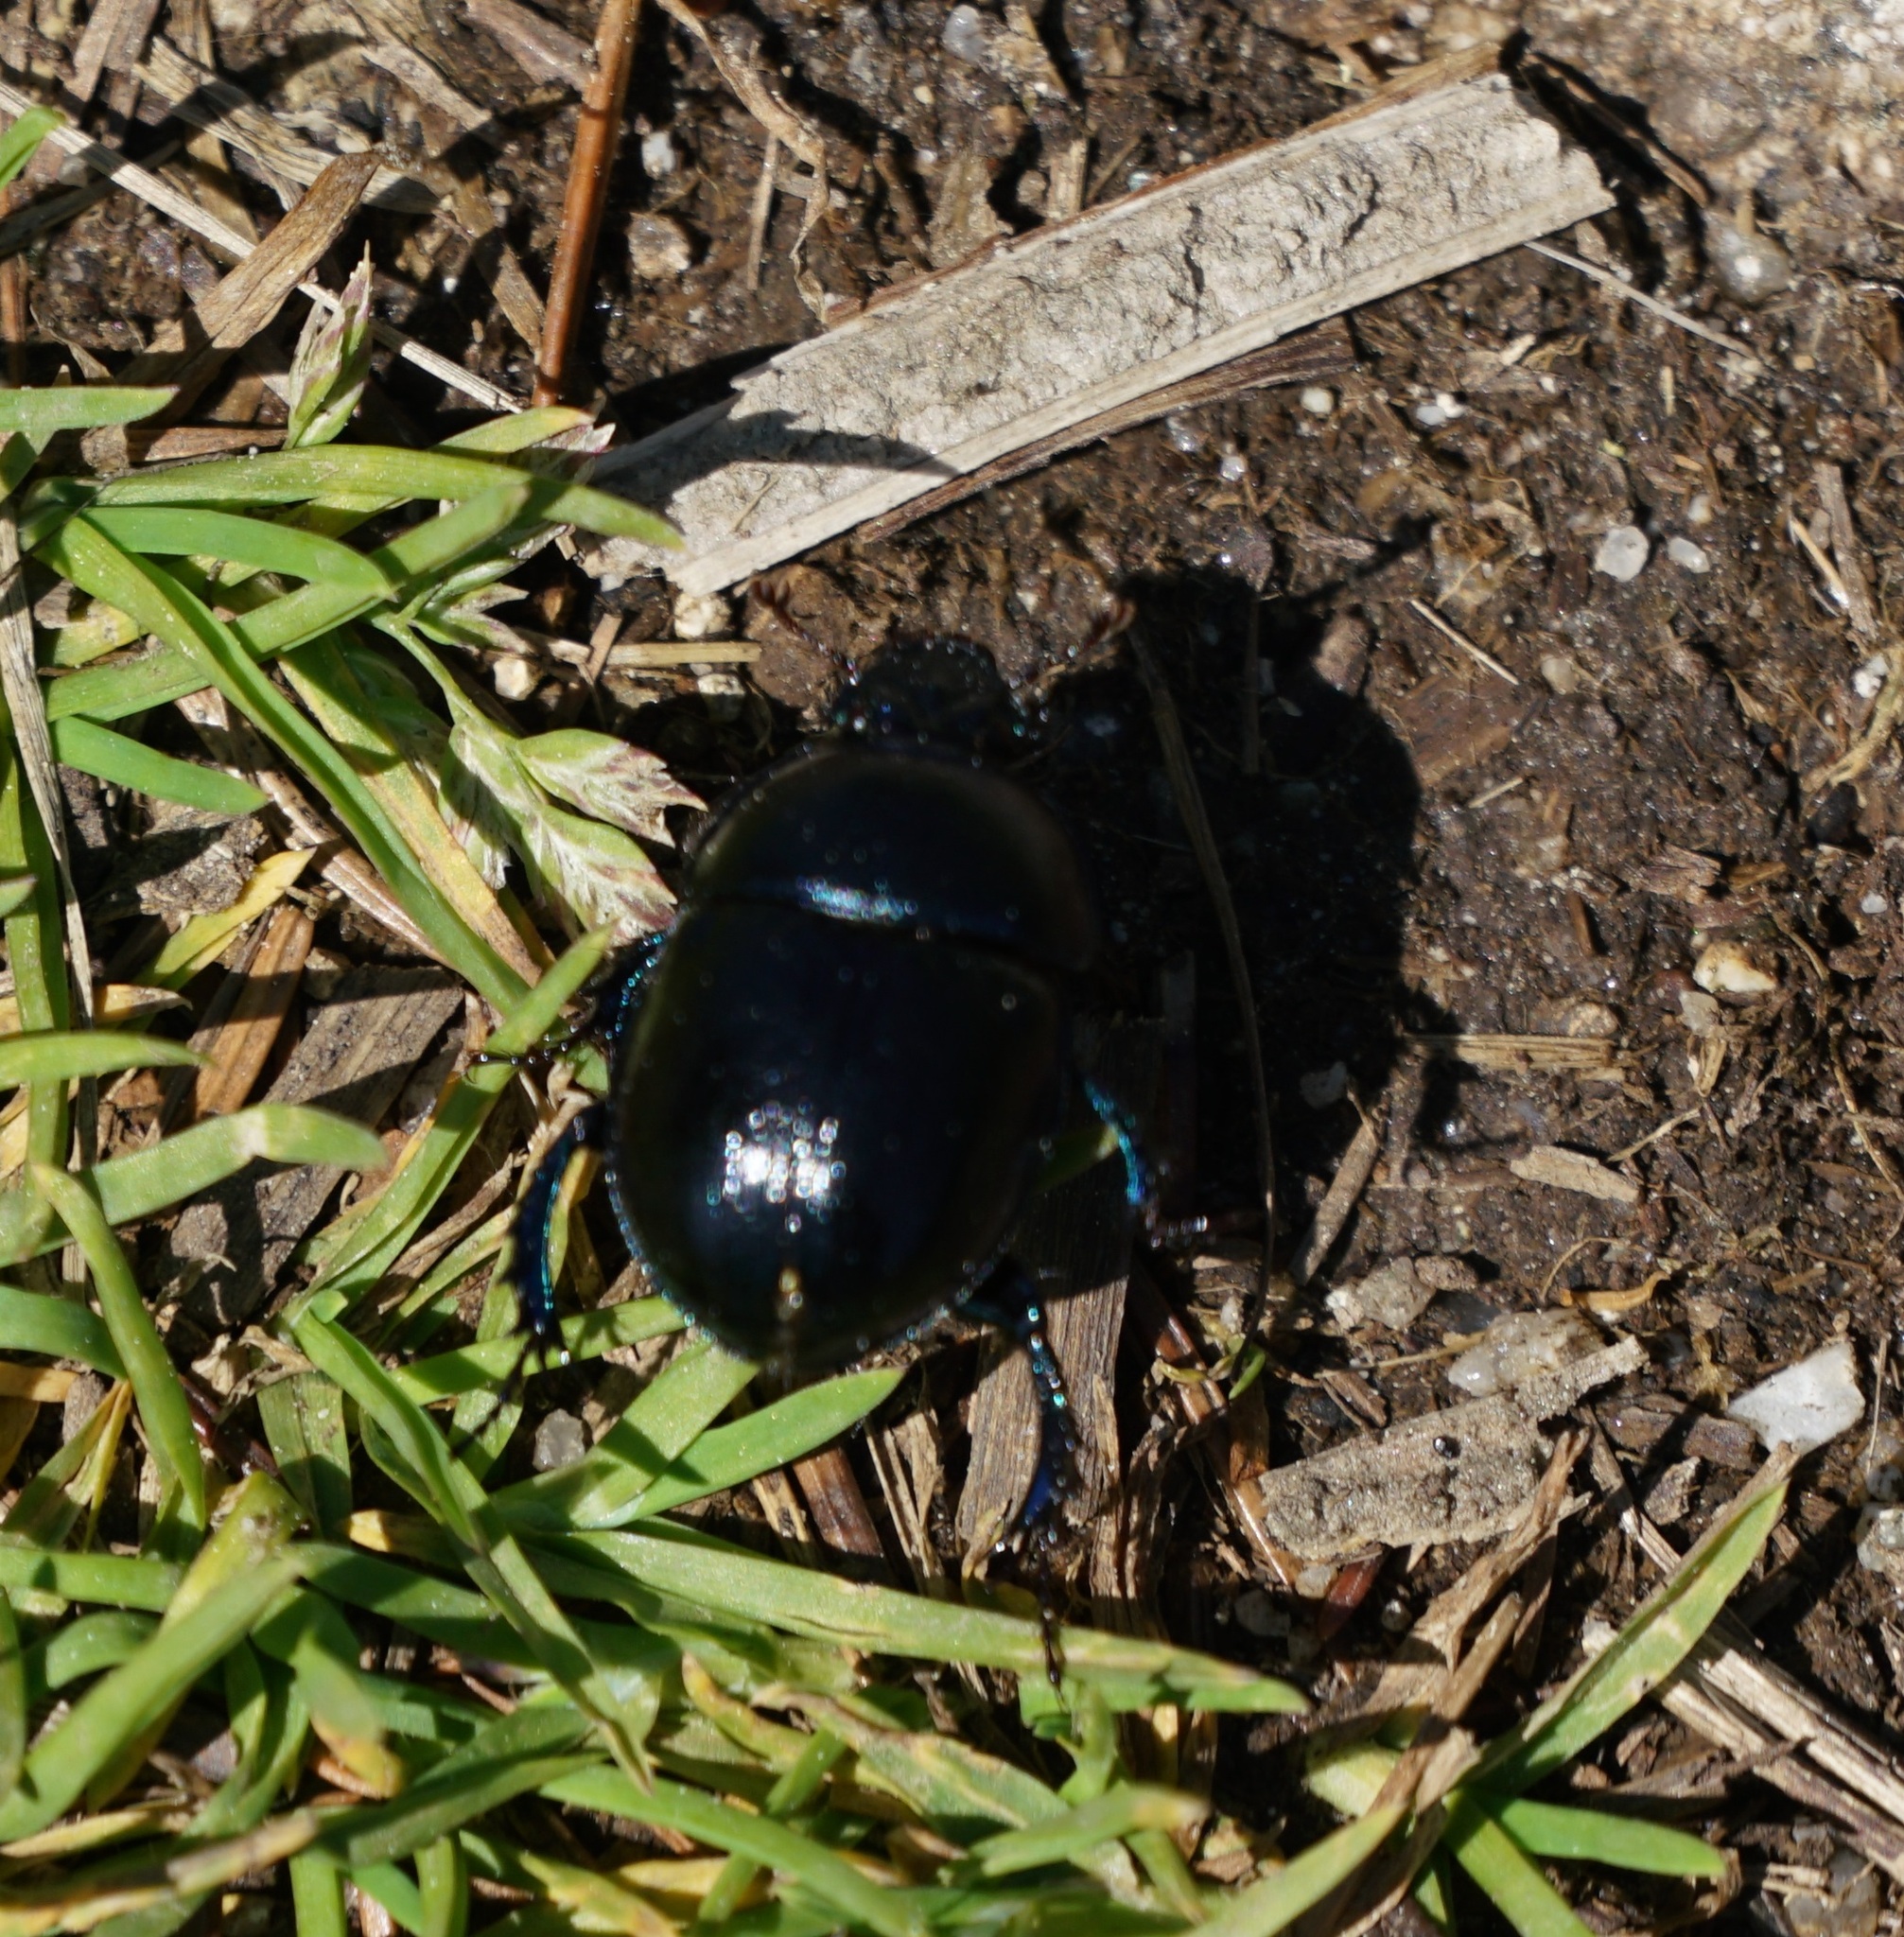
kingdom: Animalia
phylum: Arthropoda
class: Insecta
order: Coleoptera
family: Geotrupidae
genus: Anoplotrupes
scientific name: Anoplotrupes stercorosus
